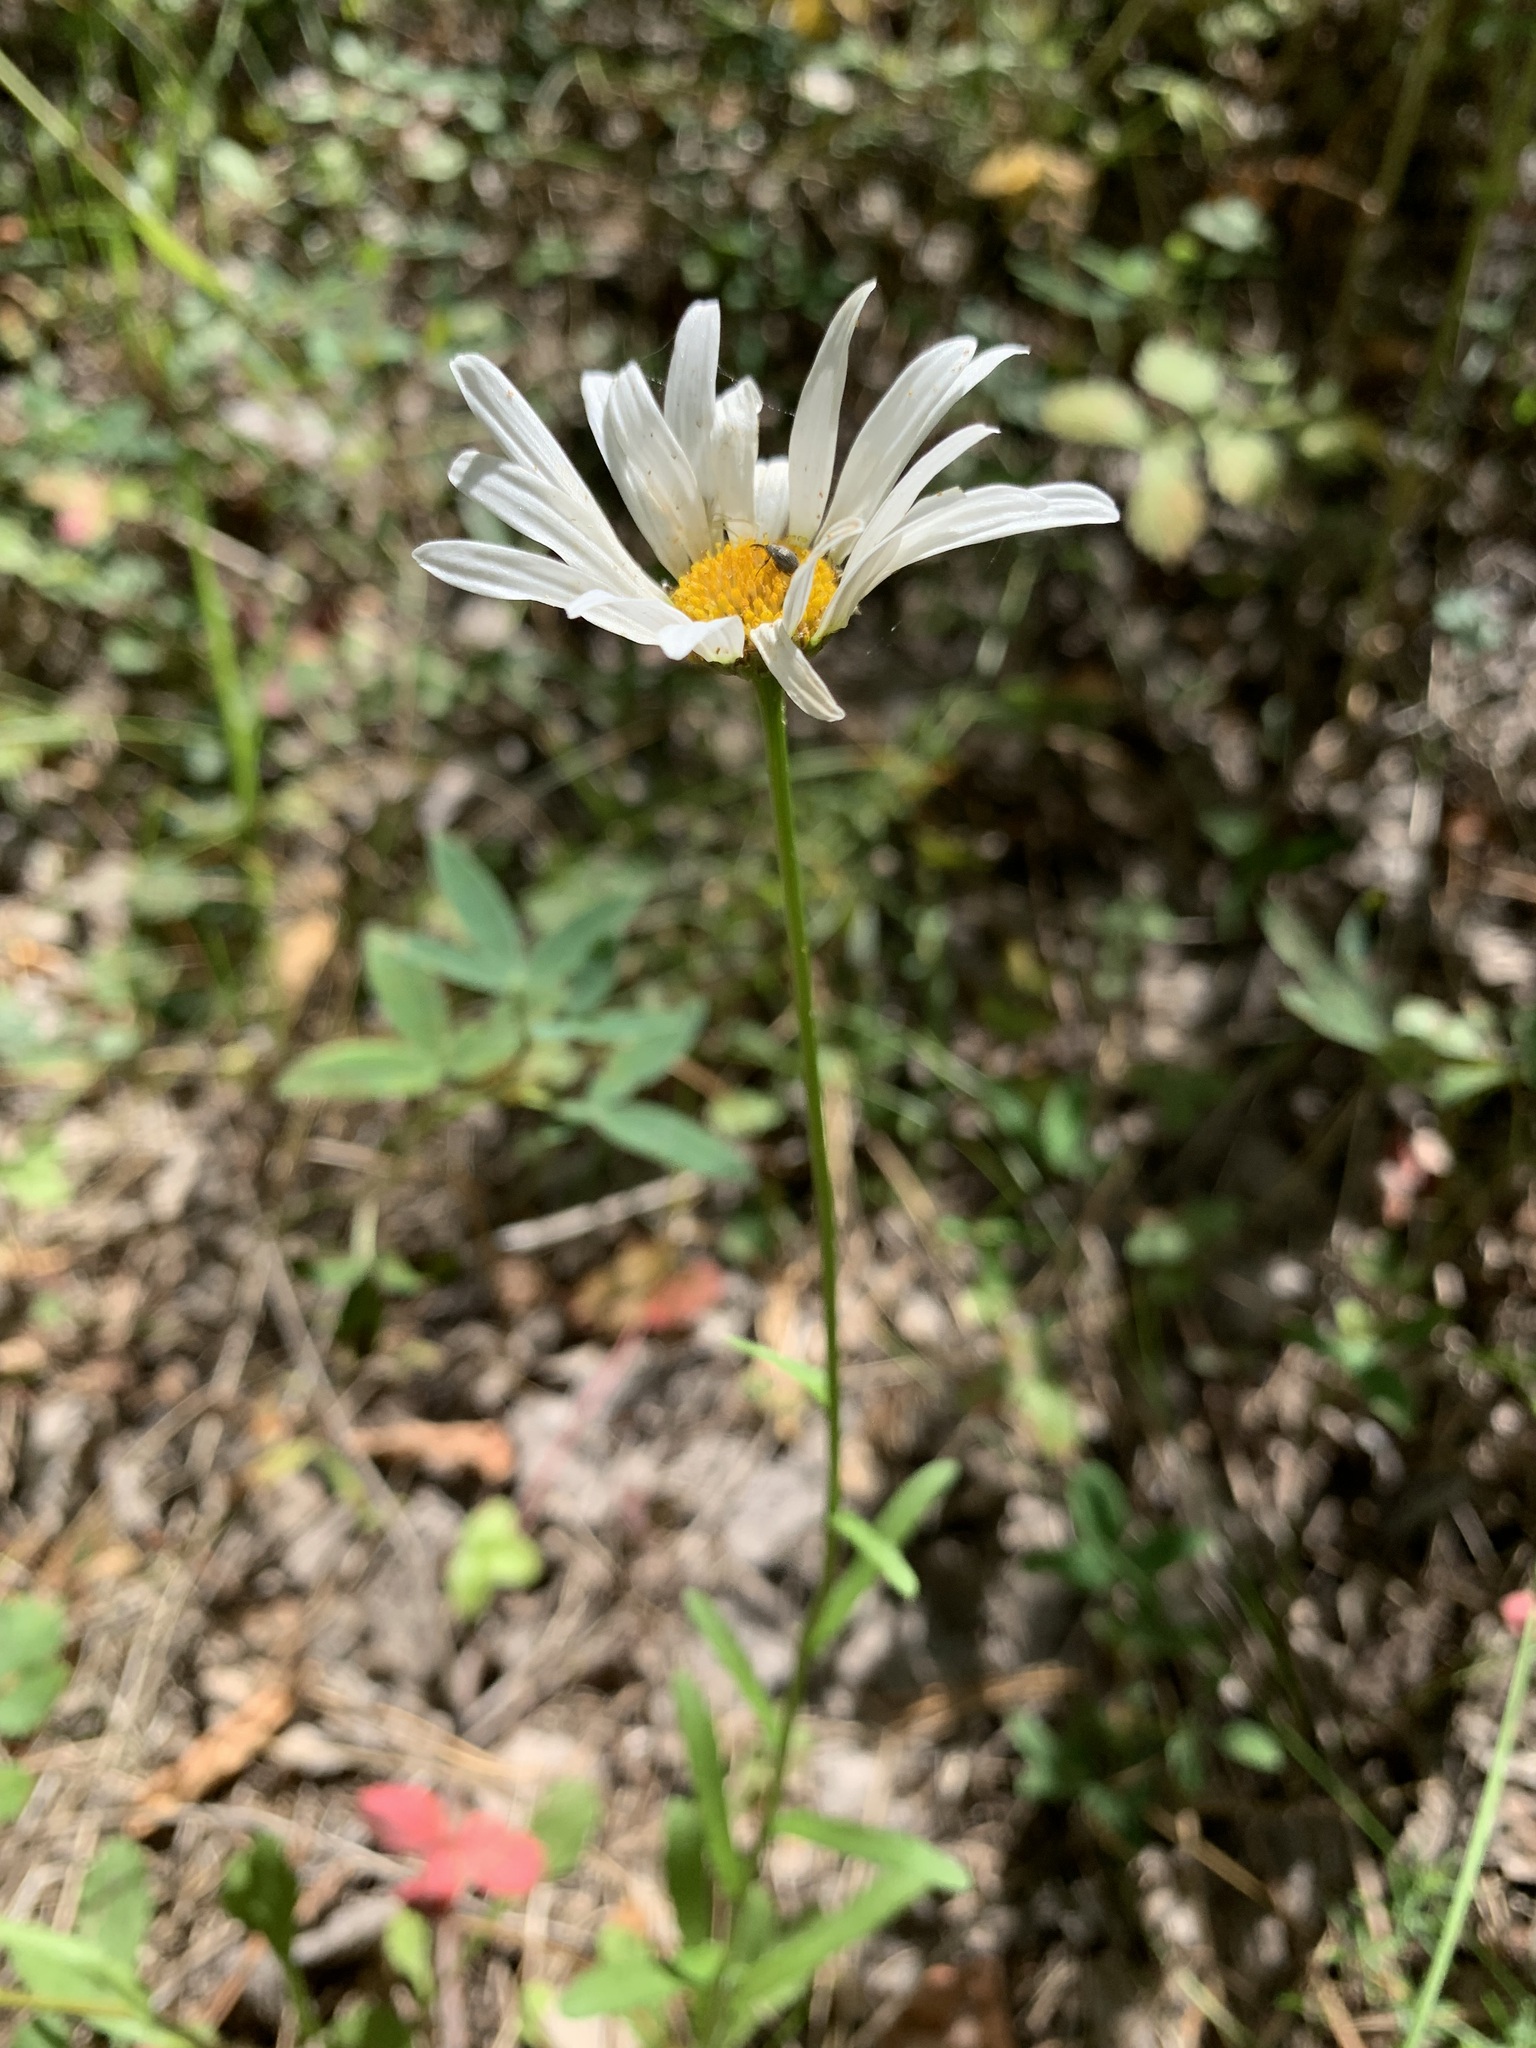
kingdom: Plantae
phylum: Tracheophyta
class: Magnoliopsida
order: Asterales
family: Asteraceae
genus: Leucanthemum
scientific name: Leucanthemum ircutianum
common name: Daisy
